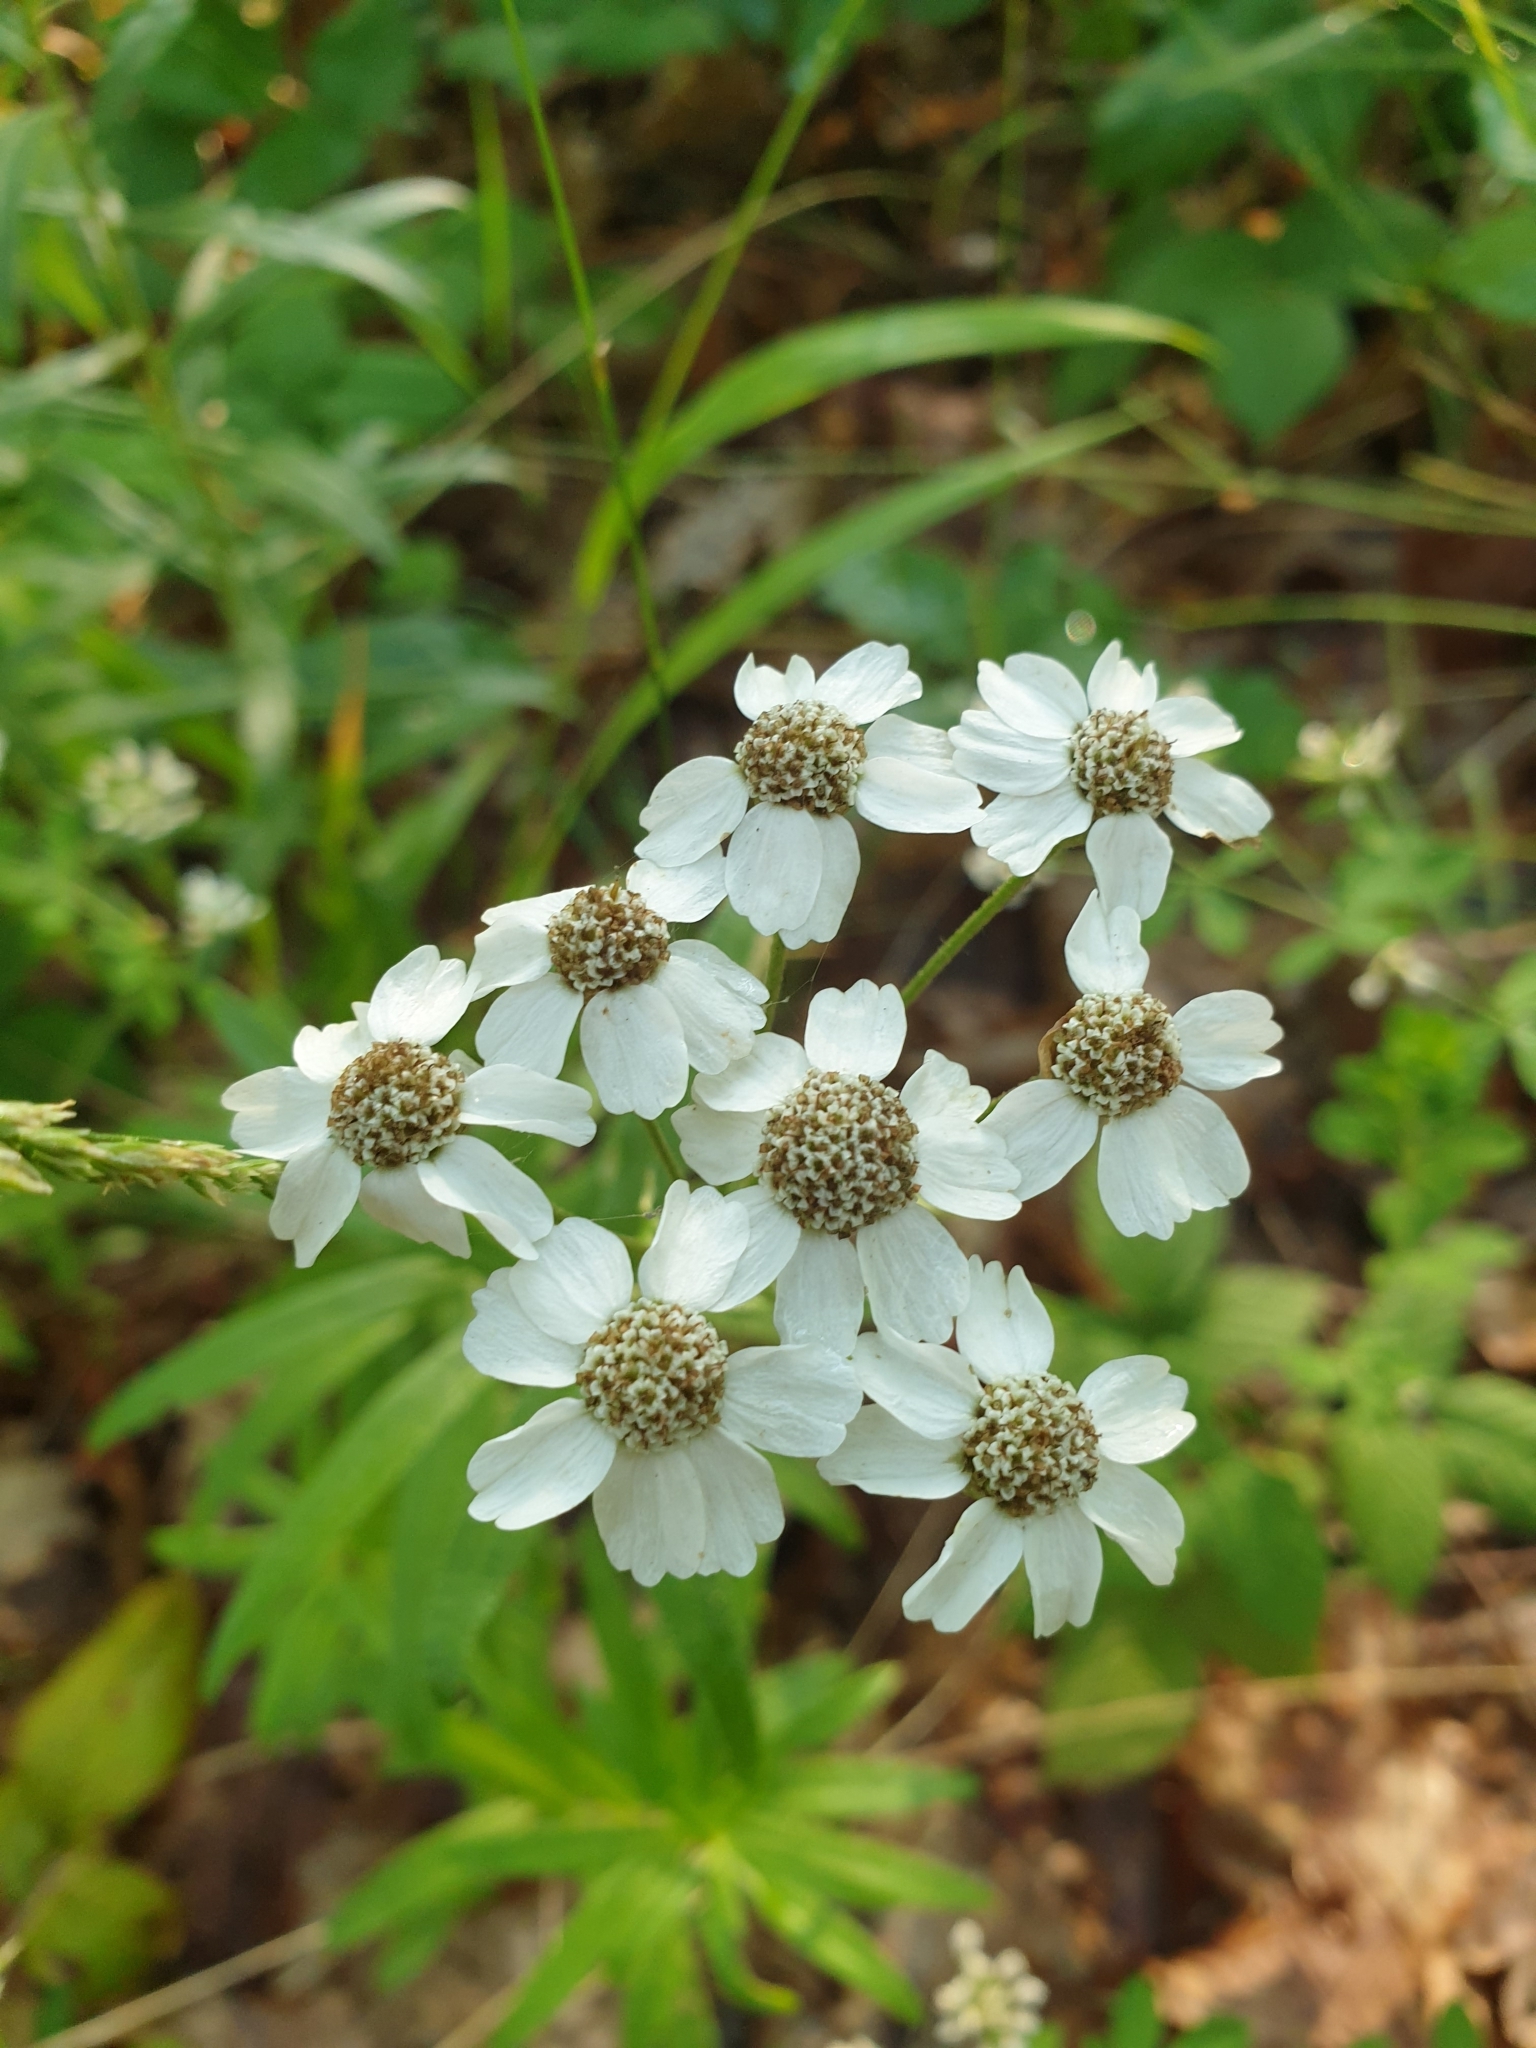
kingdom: Plantae
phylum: Tracheophyta
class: Magnoliopsida
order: Asterales
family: Asteraceae
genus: Achillea
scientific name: Achillea biserrata
